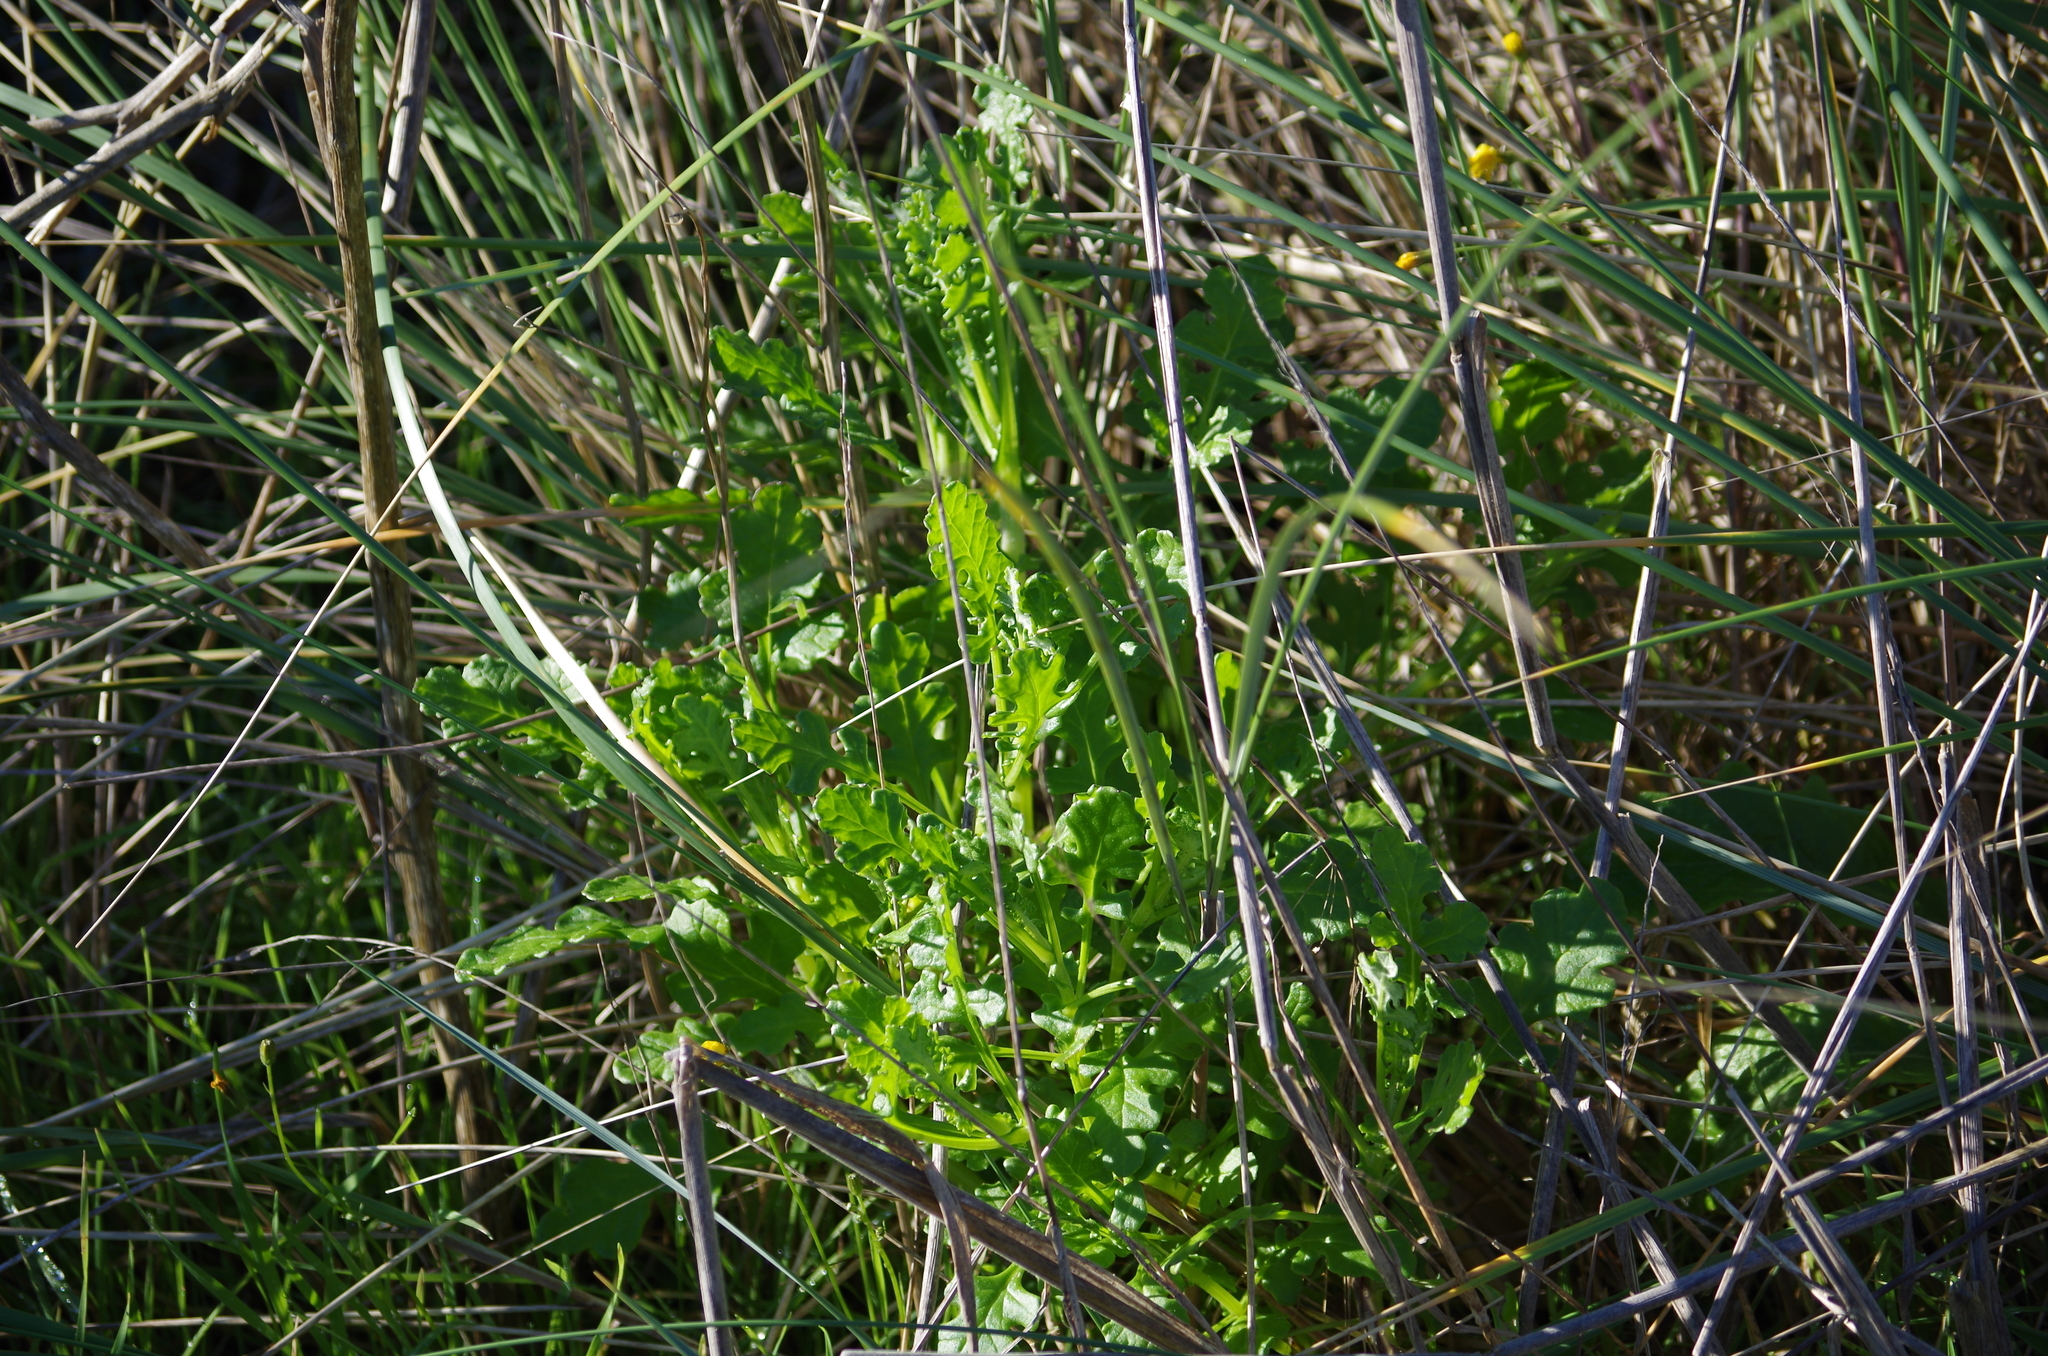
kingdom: Plantae
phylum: Tracheophyta
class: Magnoliopsida
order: Asterales
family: Asteraceae
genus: Senecio
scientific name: Senecio elegans
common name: Purple groundsel
